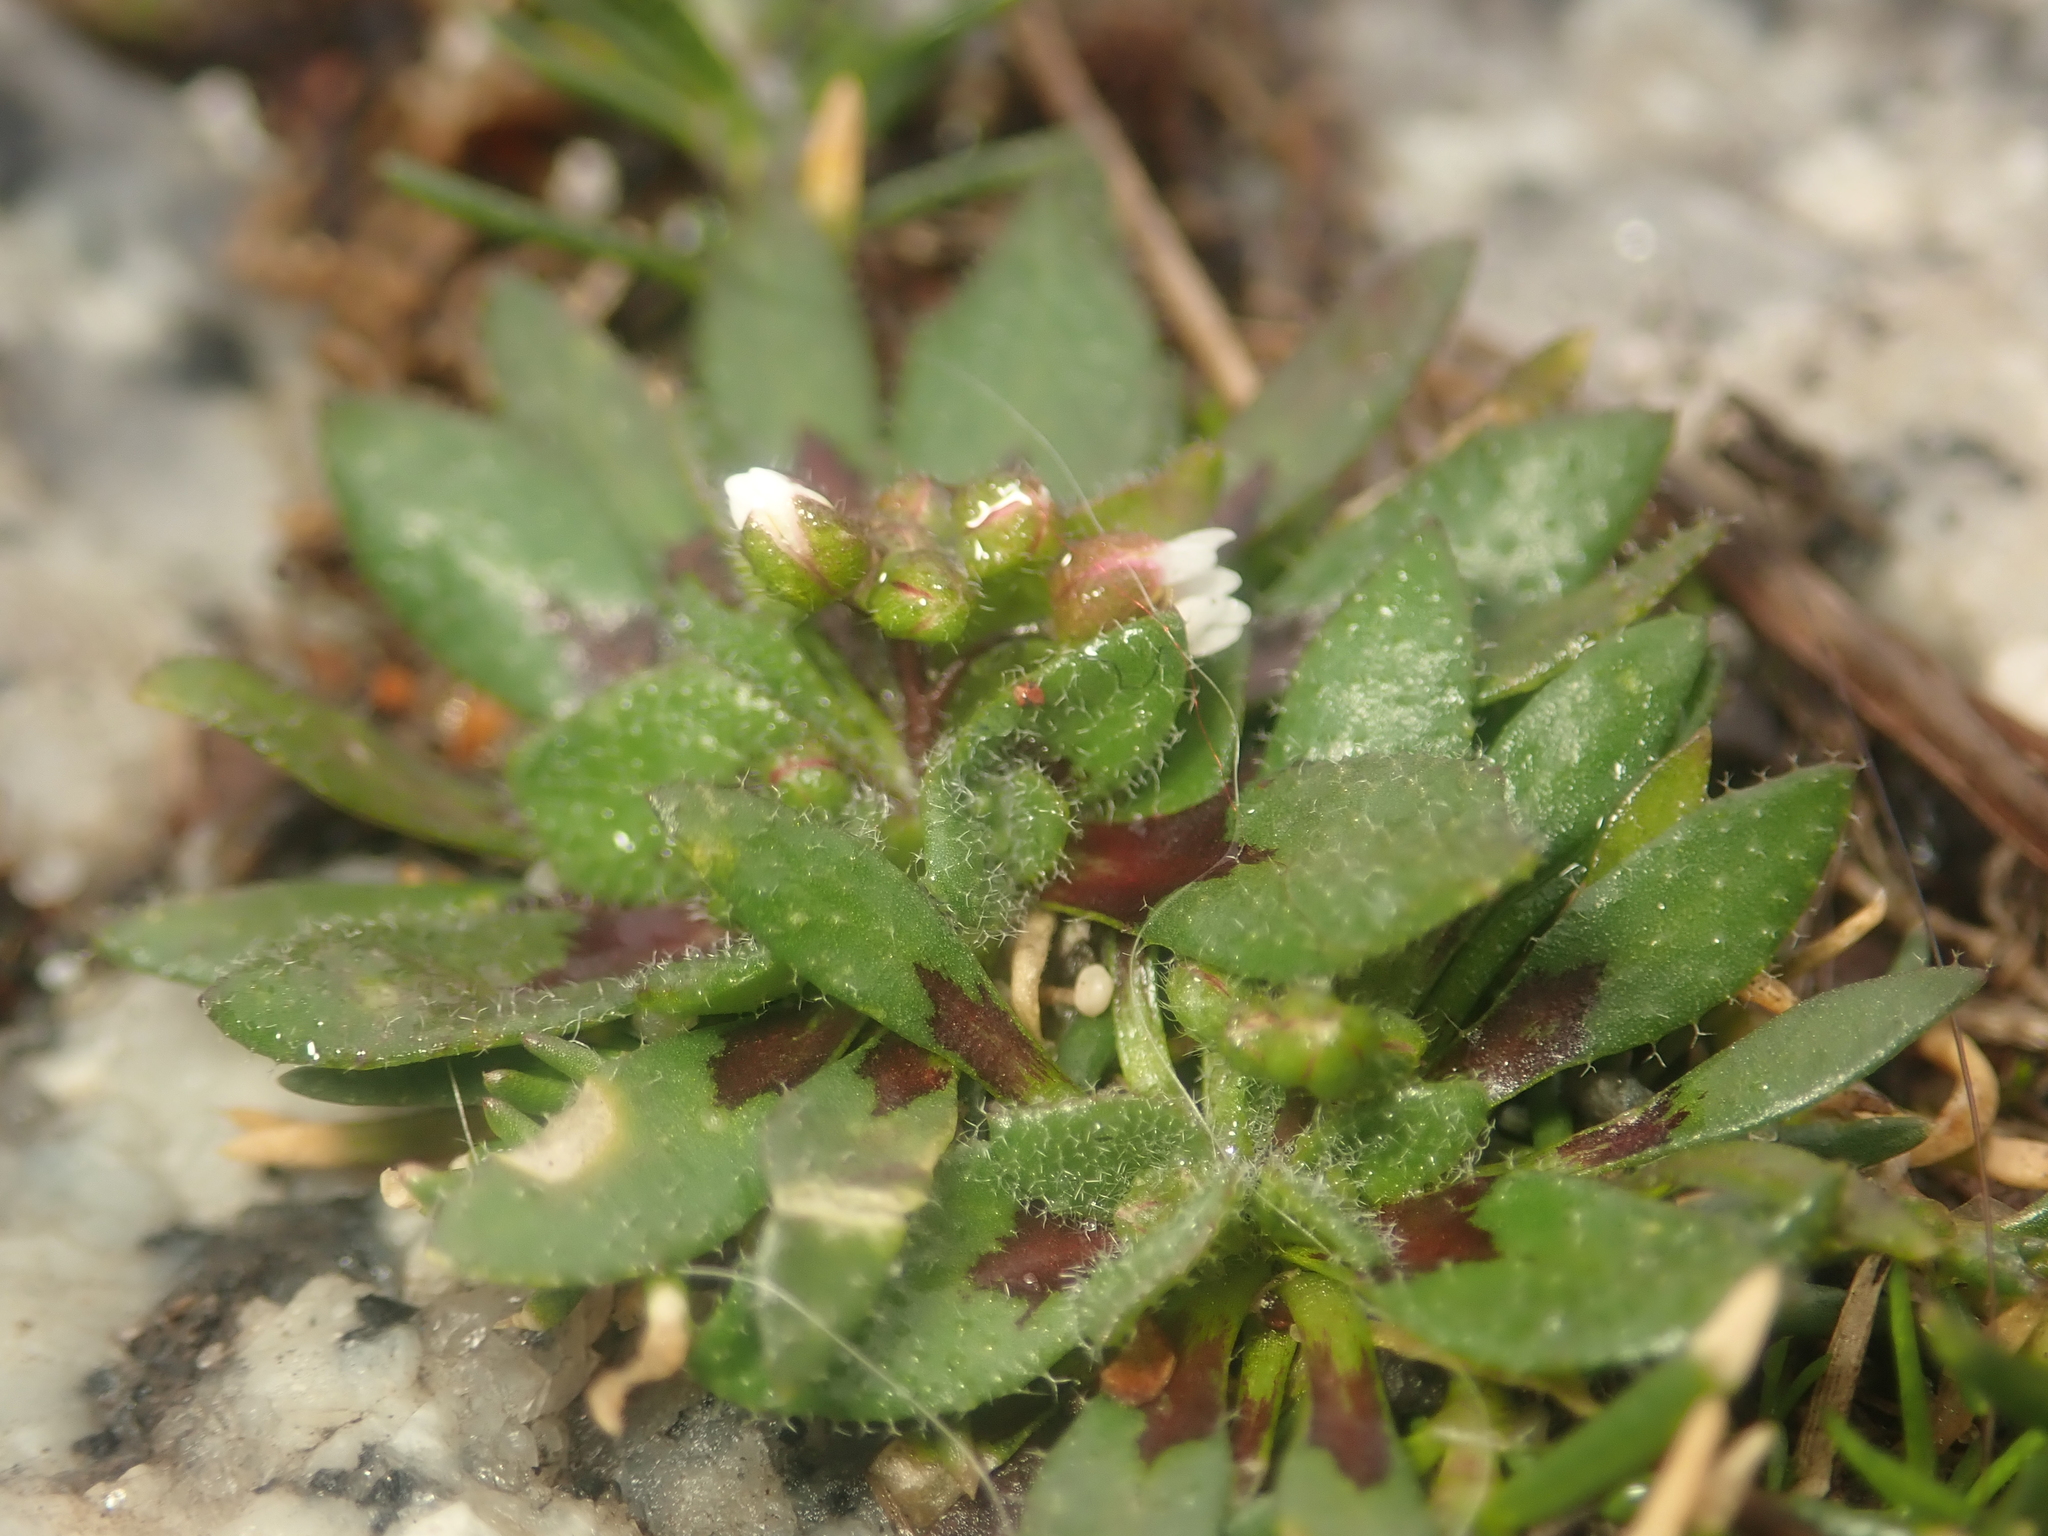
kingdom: Plantae
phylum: Tracheophyta
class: Magnoliopsida
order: Brassicales
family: Brassicaceae
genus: Draba
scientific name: Draba verna
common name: Spring draba
